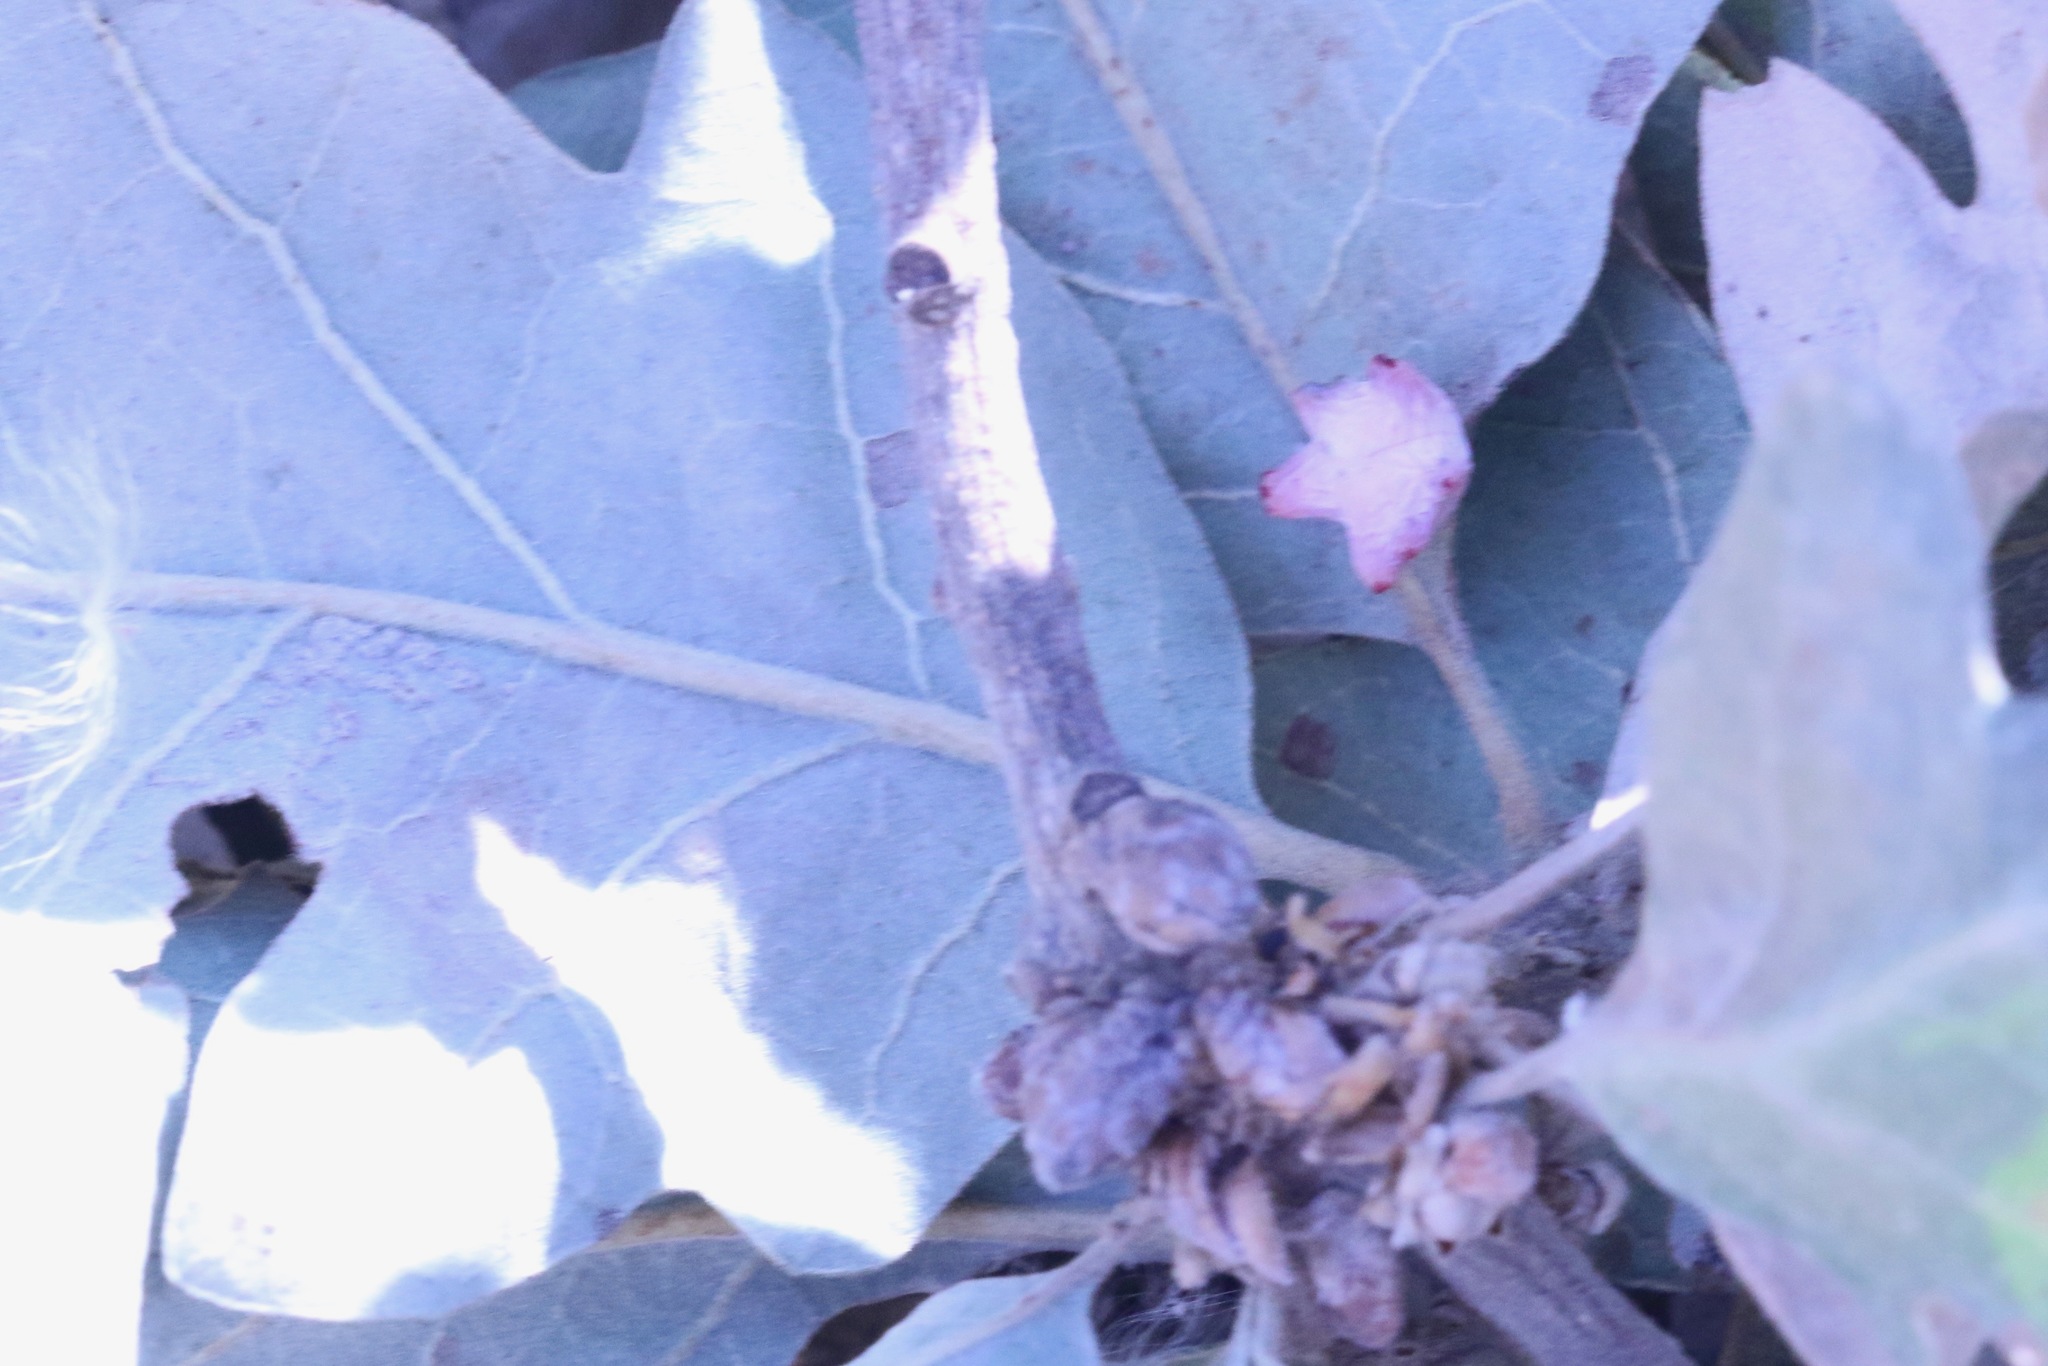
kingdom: Animalia
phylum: Arthropoda
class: Insecta
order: Hymenoptera
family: Cynipidae
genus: Cynips
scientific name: Cynips douglasi
